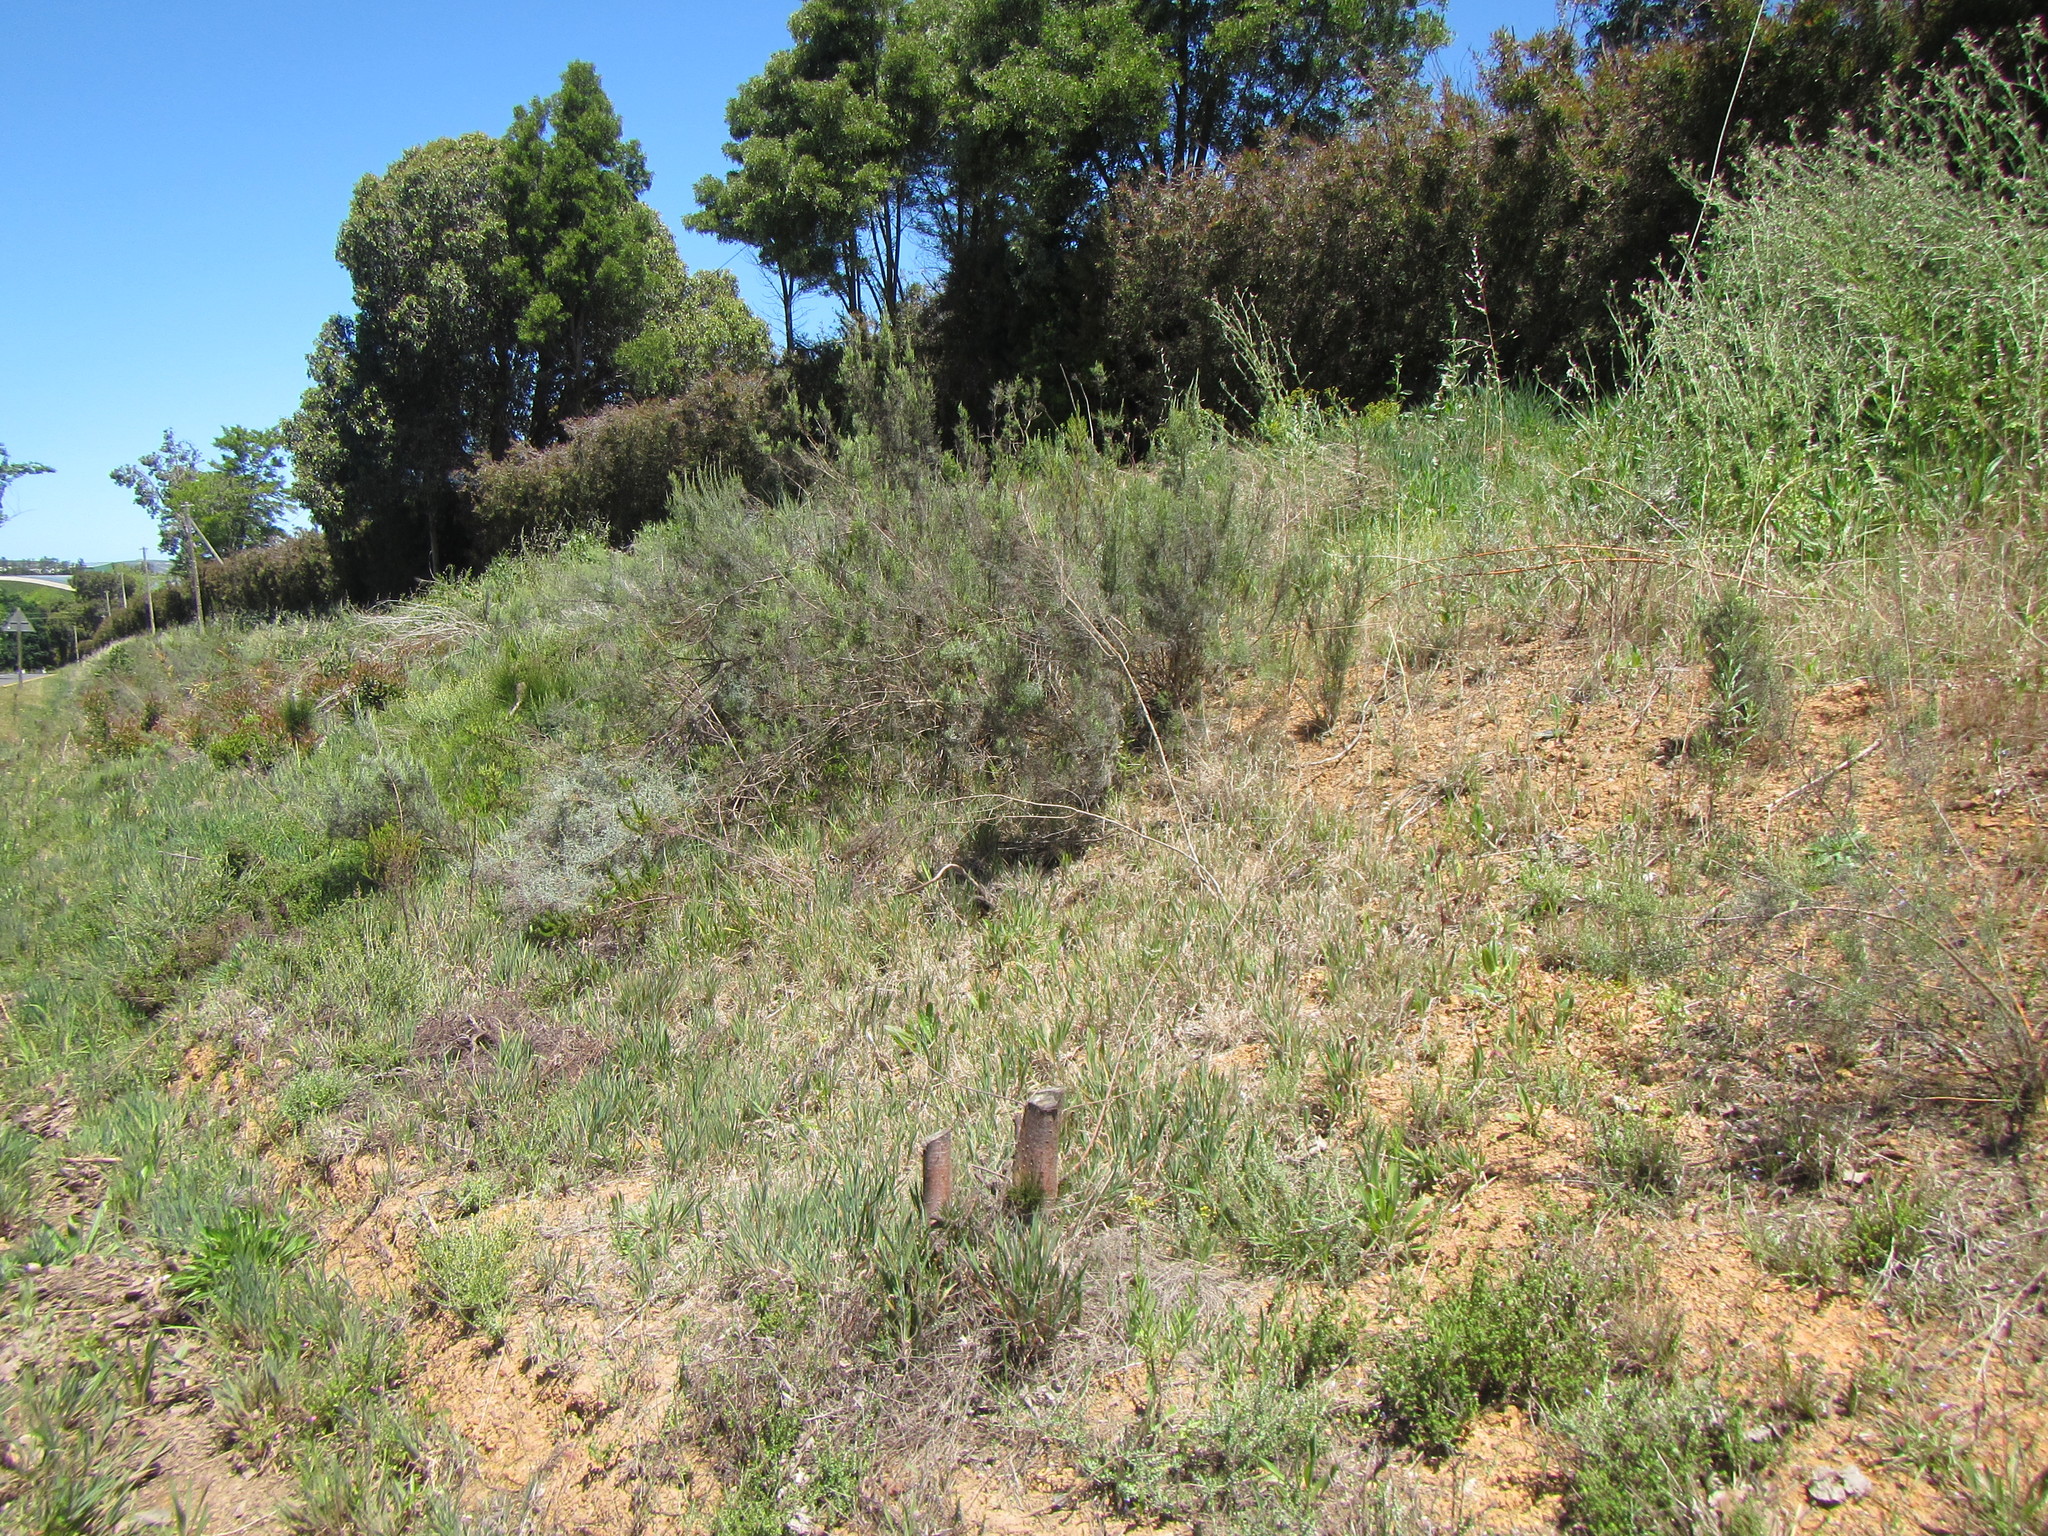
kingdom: Plantae
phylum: Tracheophyta
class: Magnoliopsida
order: Asterales
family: Asteraceae
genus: Dicerothamnus
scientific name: Dicerothamnus rhinocerotis
